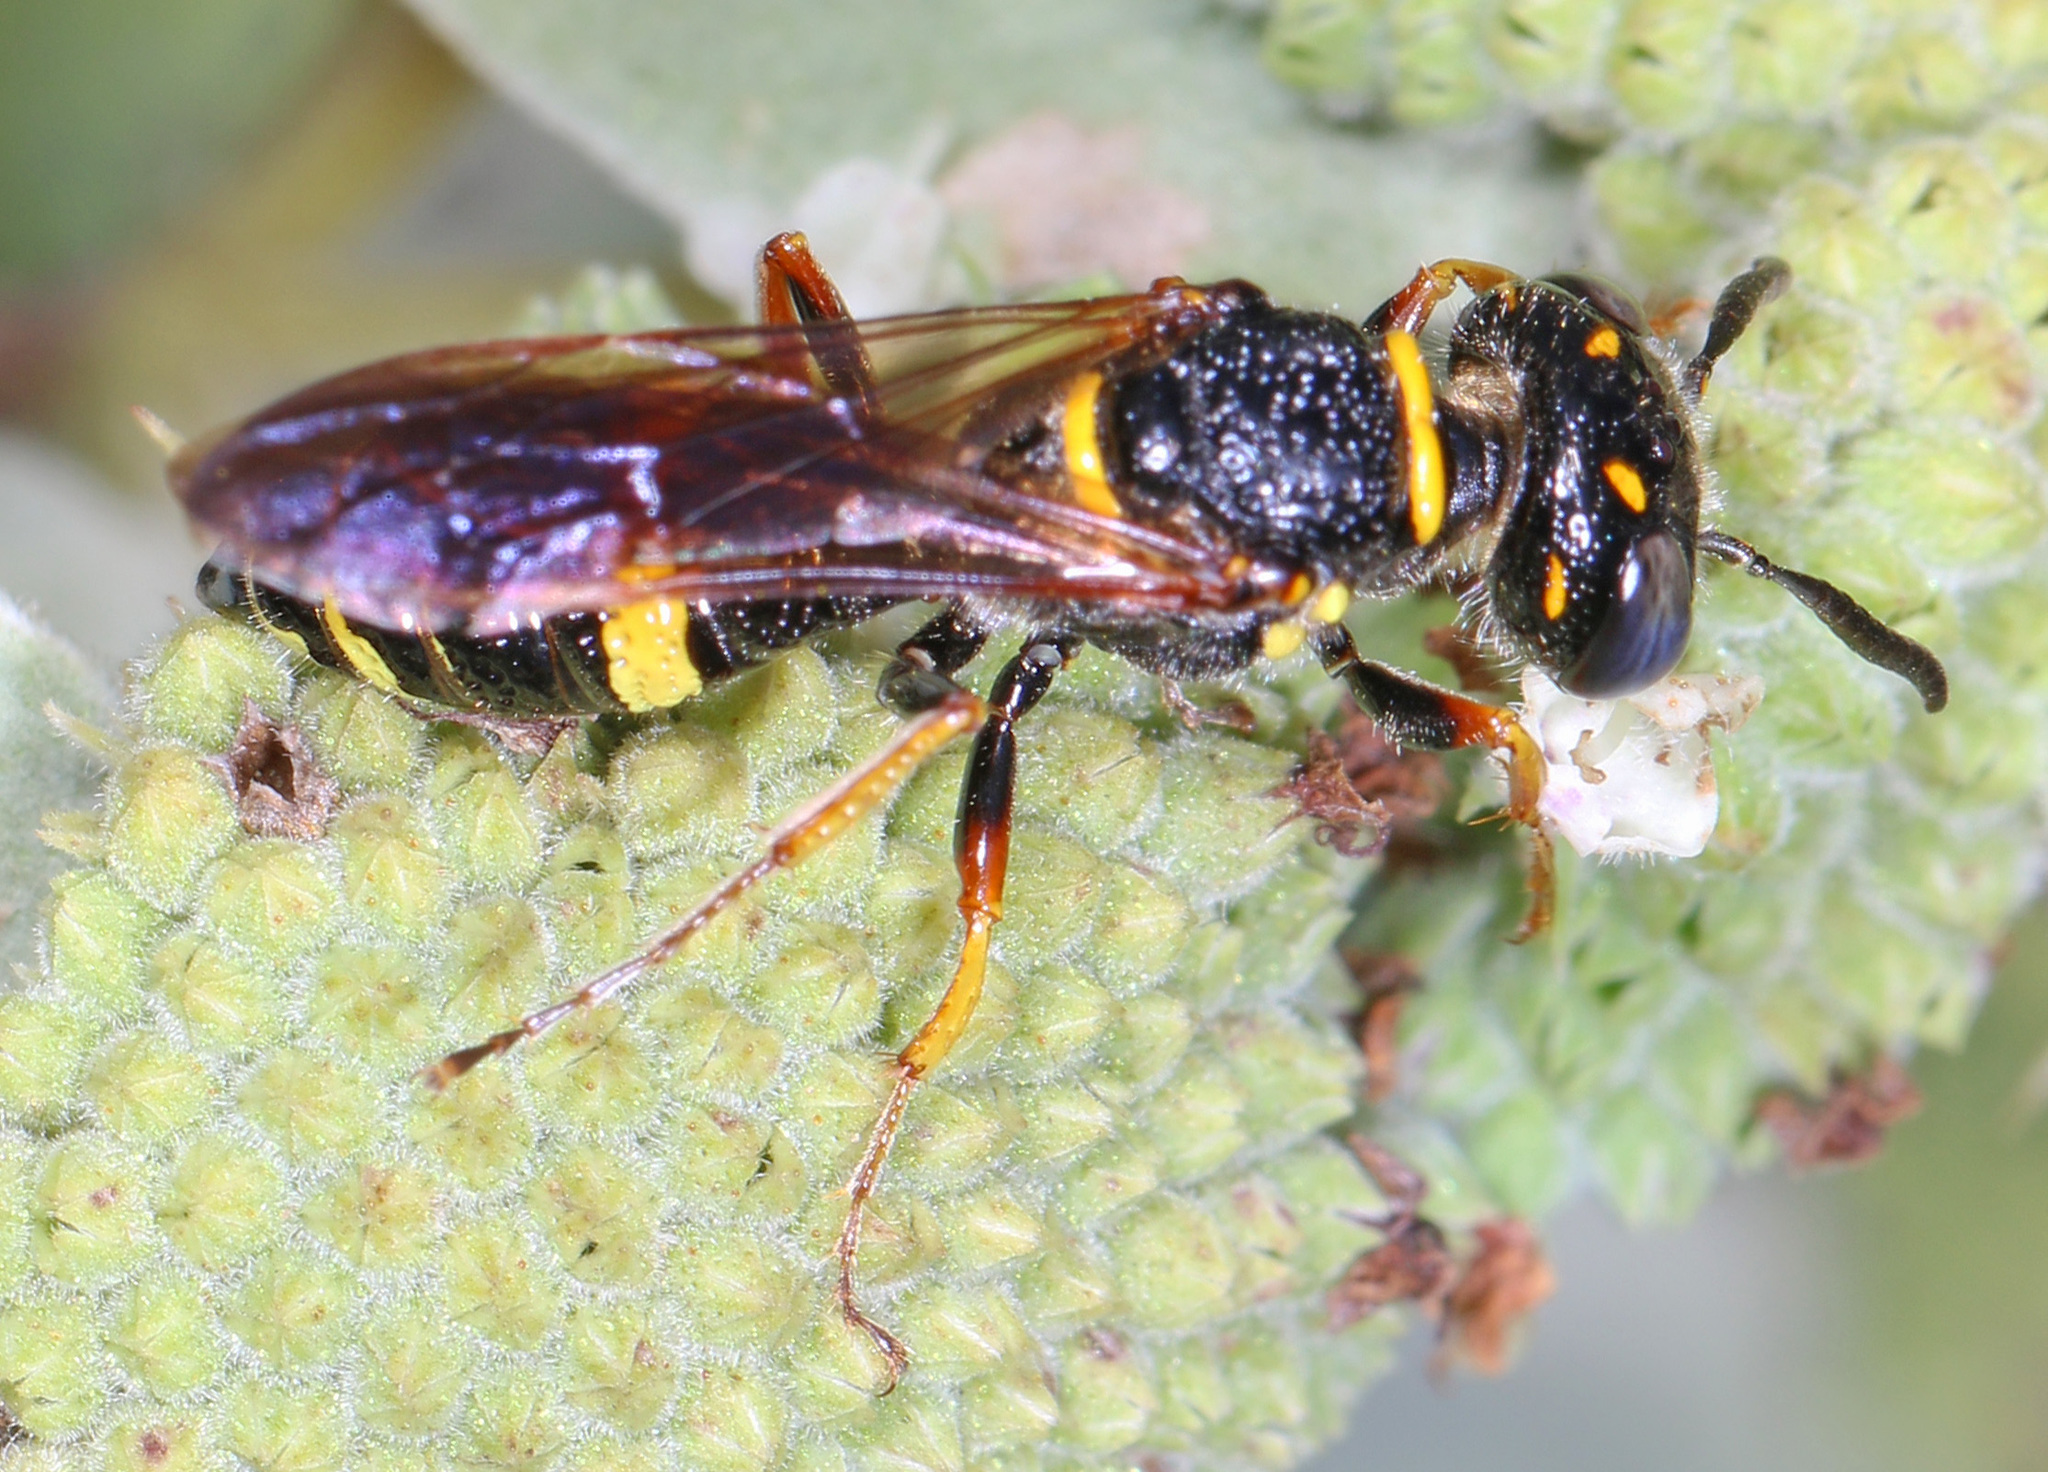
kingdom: Animalia
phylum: Arthropoda
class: Insecta
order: Hymenoptera
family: Crabronidae
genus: Philanthus
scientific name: Philanthus gibbosus
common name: Humped beewolf
